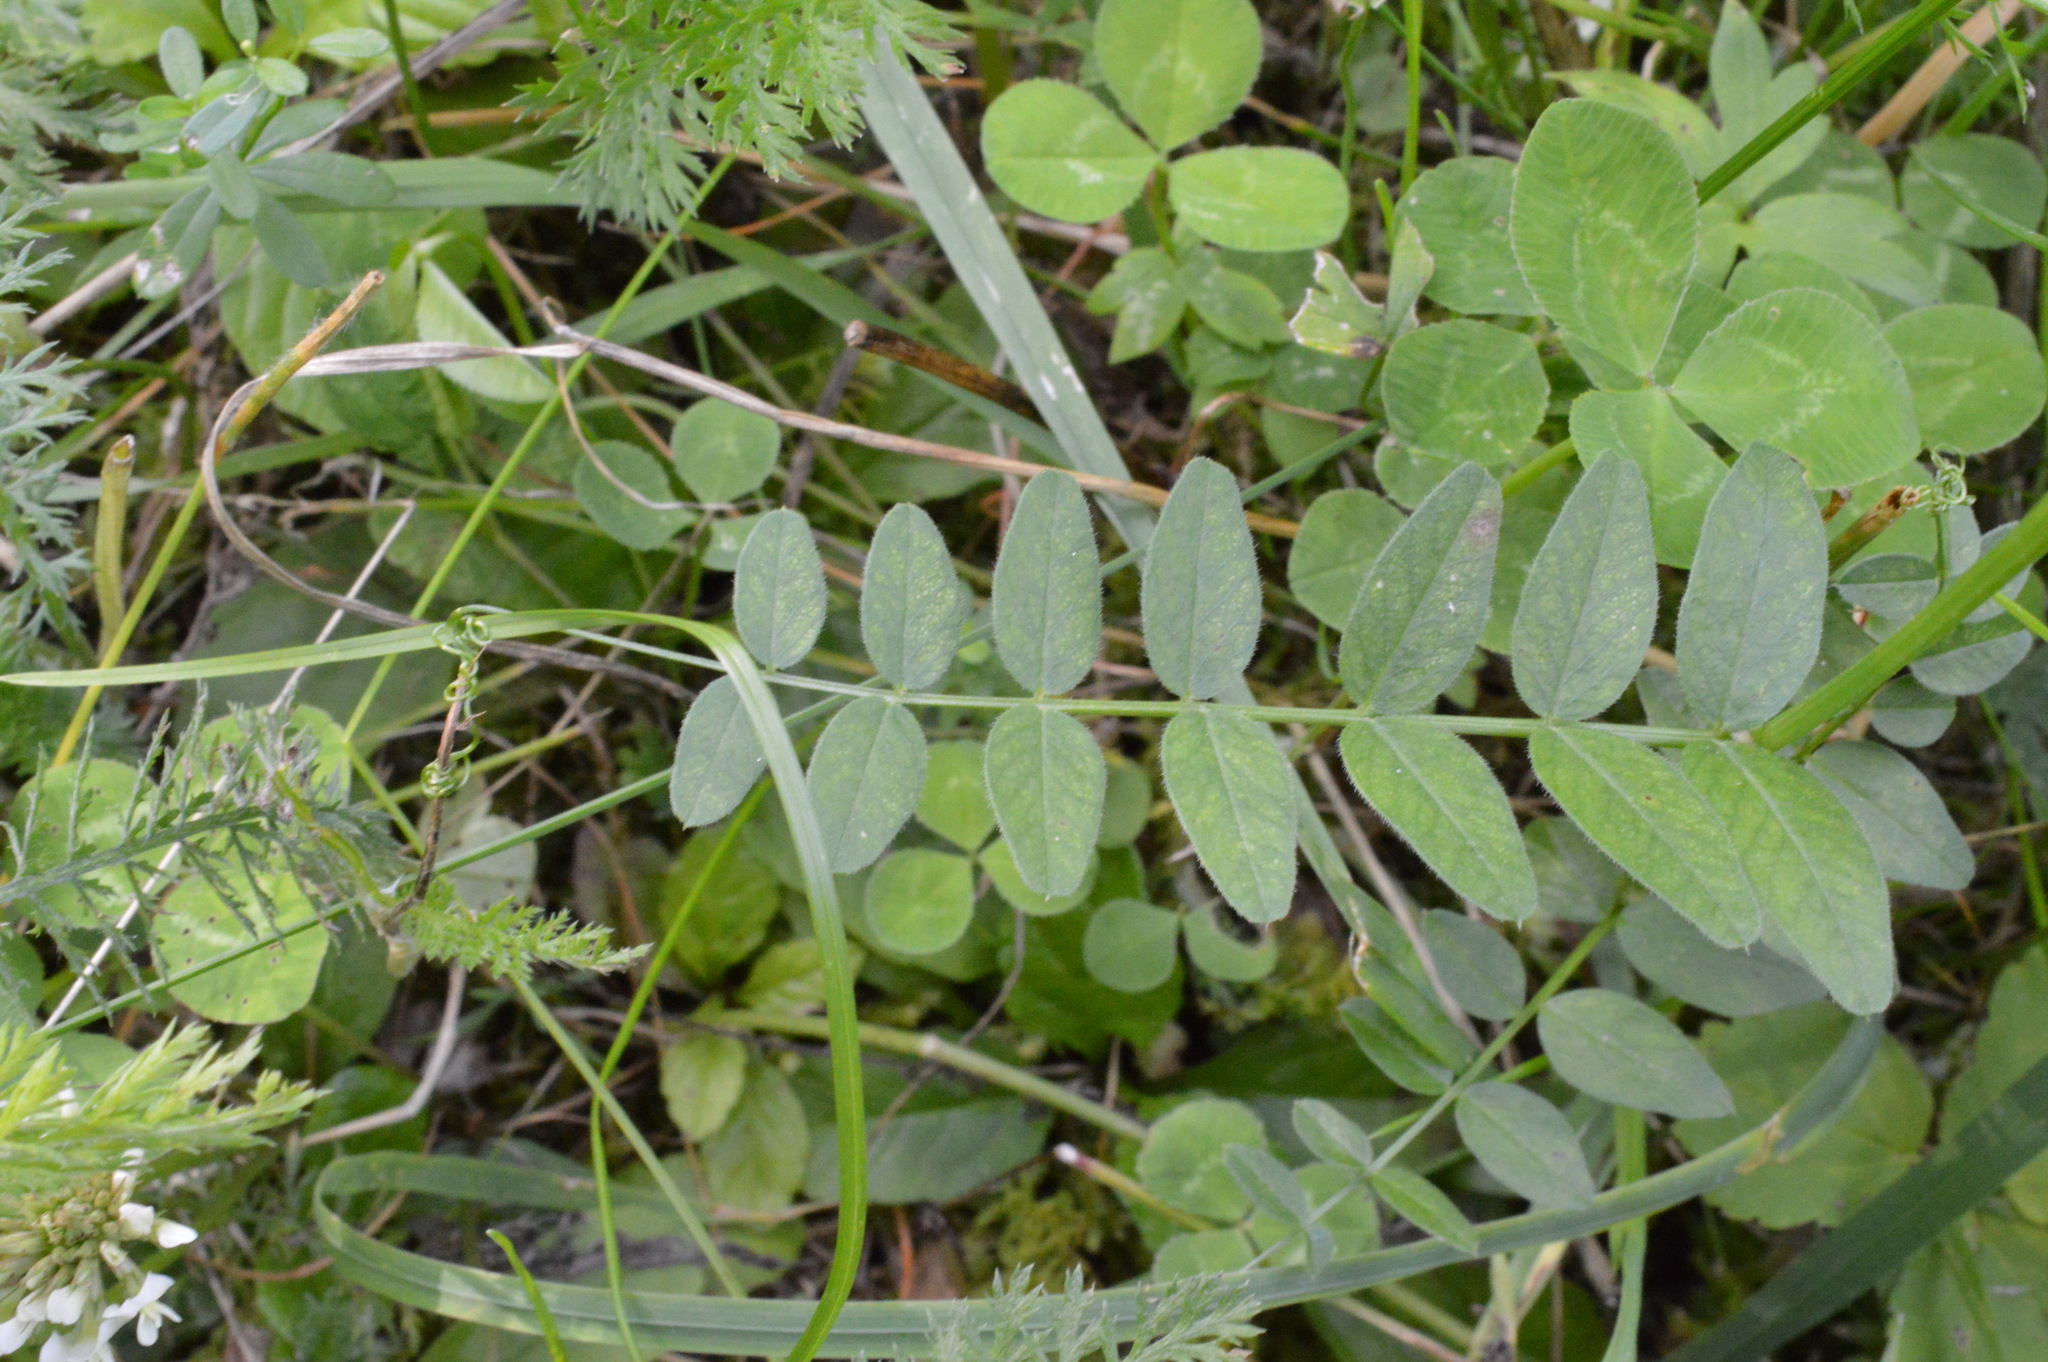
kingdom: Plantae
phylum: Tracheophyta
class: Magnoliopsida
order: Fabales
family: Fabaceae
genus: Vicia
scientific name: Vicia sepium
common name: Bush vetch
